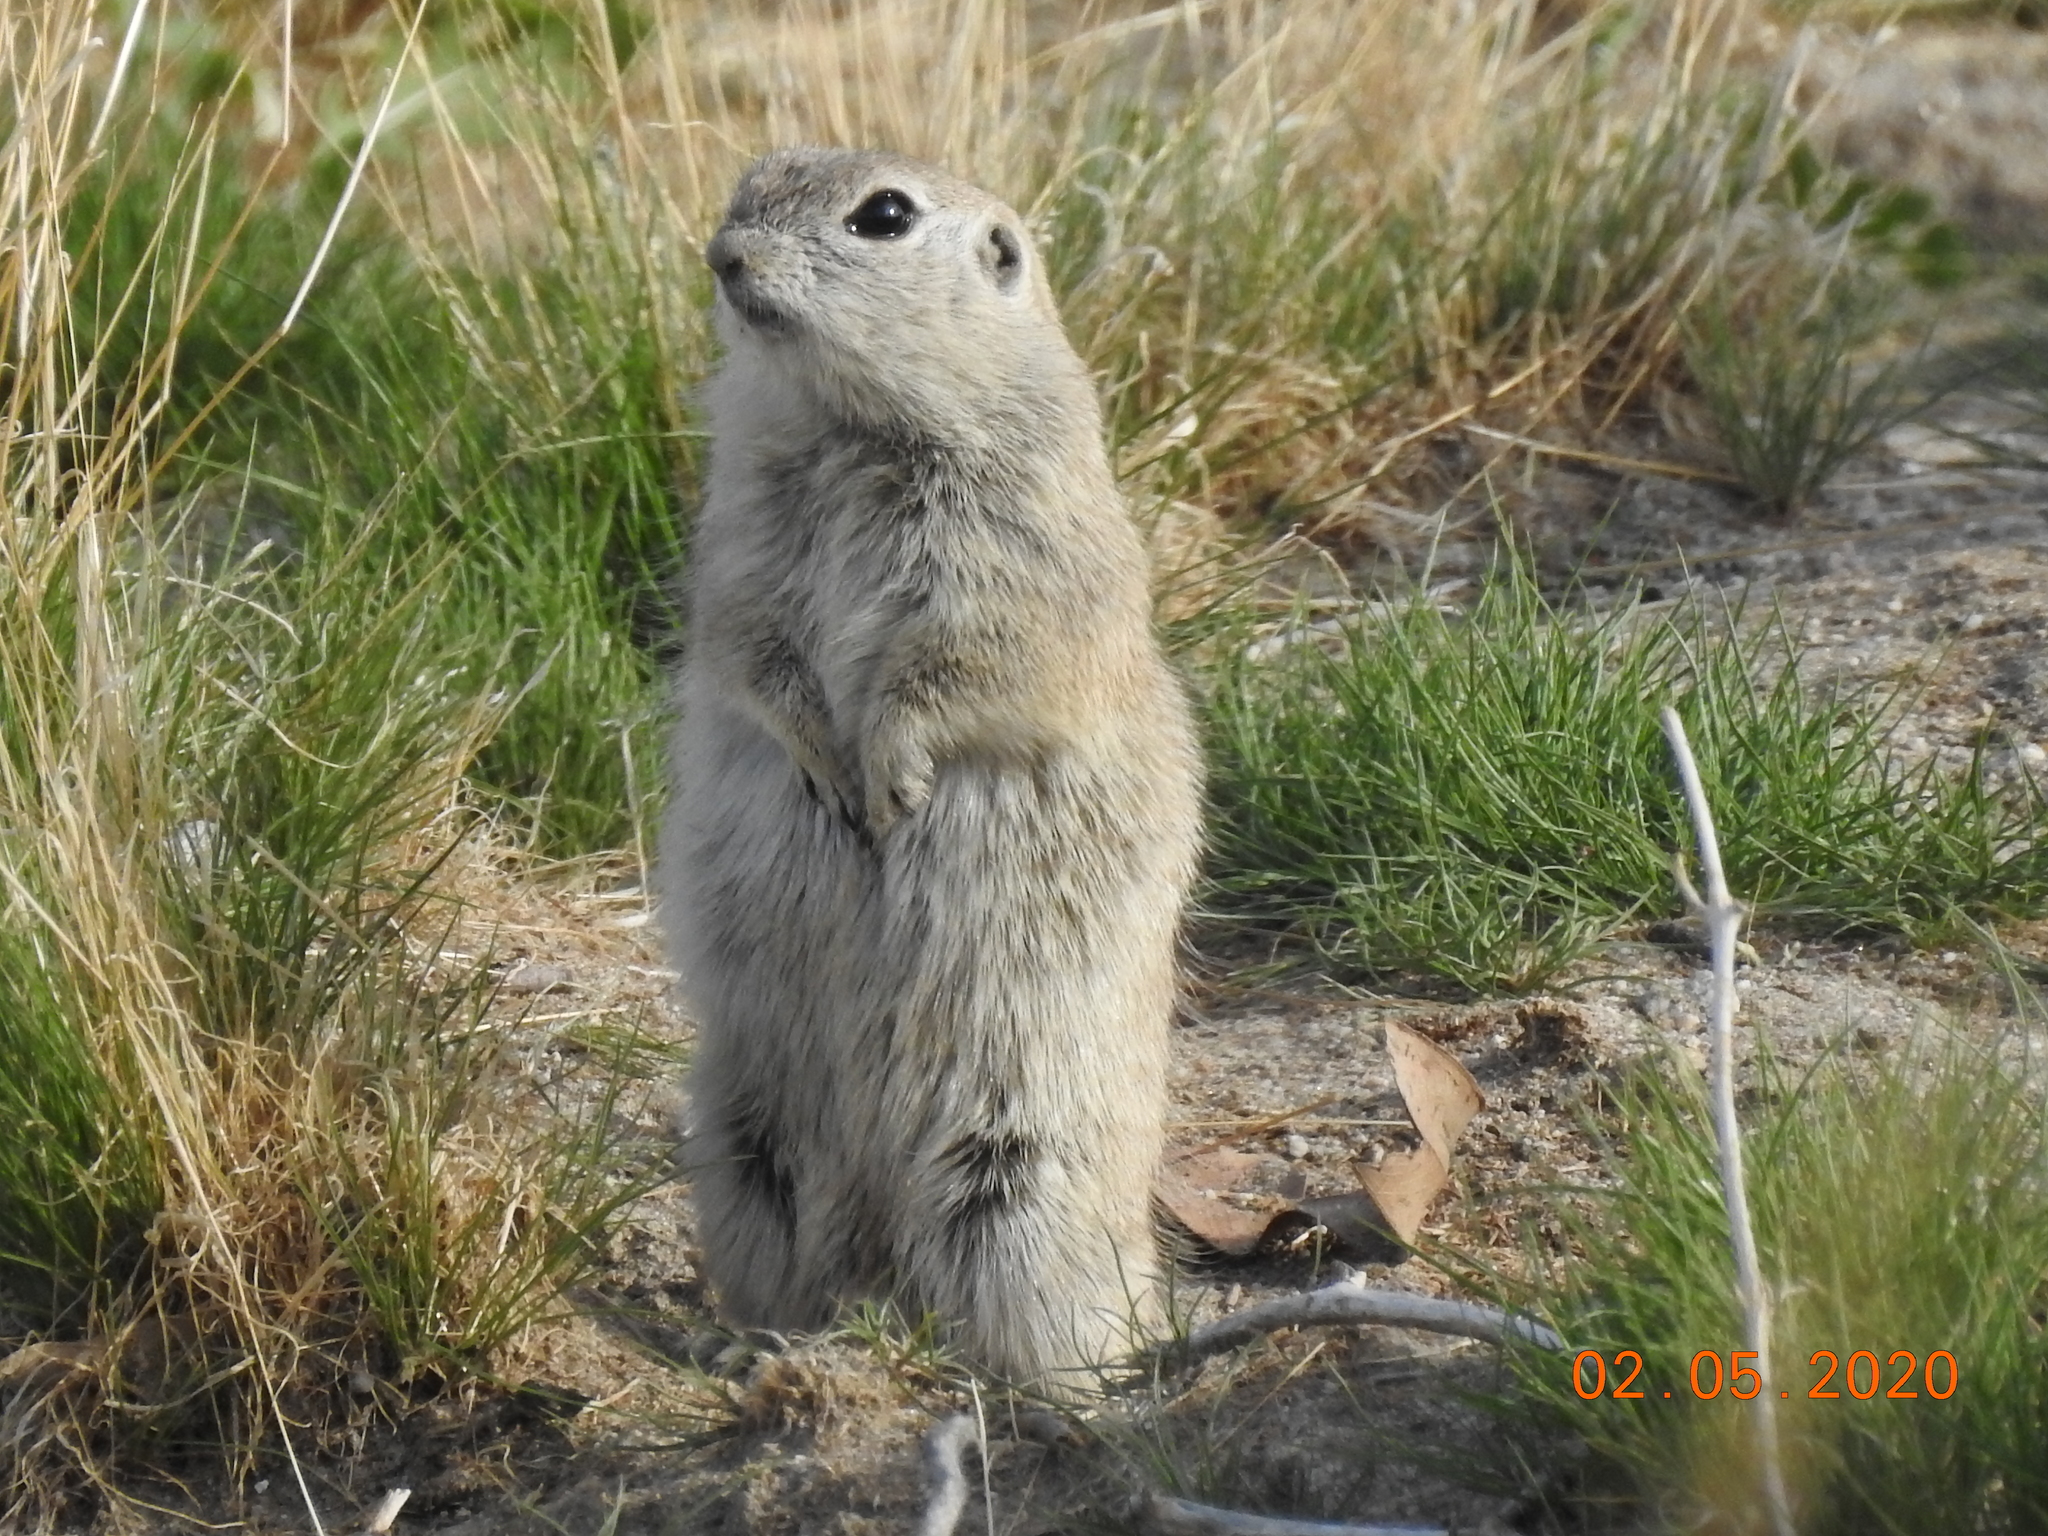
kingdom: Animalia
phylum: Chordata
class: Mammalia
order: Rodentia
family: Sciuridae
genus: Xerospermophilus
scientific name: Xerospermophilus tereticaudus
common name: Round-tailed ground squirrel
